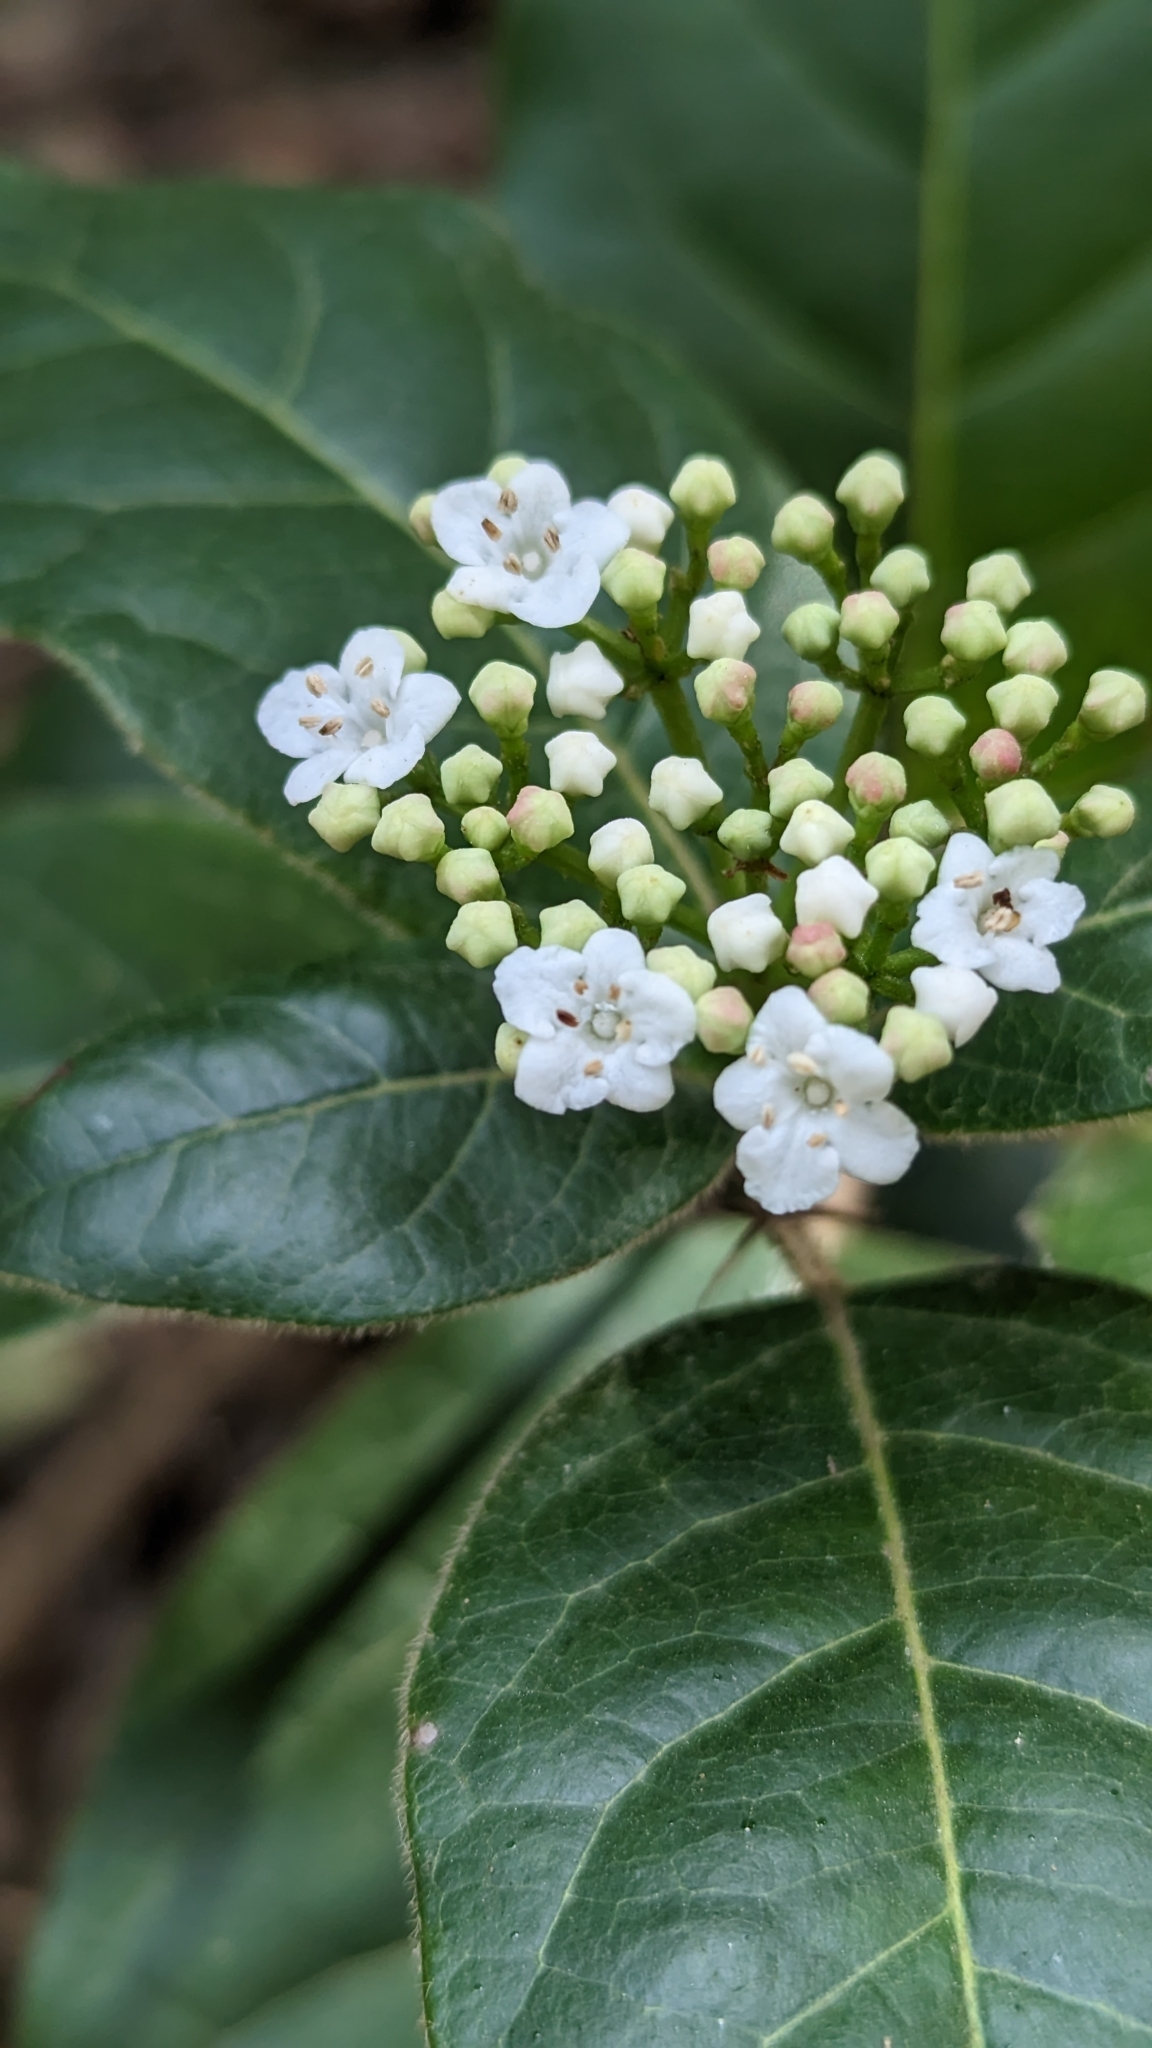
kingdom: Plantae
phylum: Tracheophyta
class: Magnoliopsida
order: Dipsacales
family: Viburnaceae
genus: Viburnum
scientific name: Viburnum tinus
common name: Laurustinus
